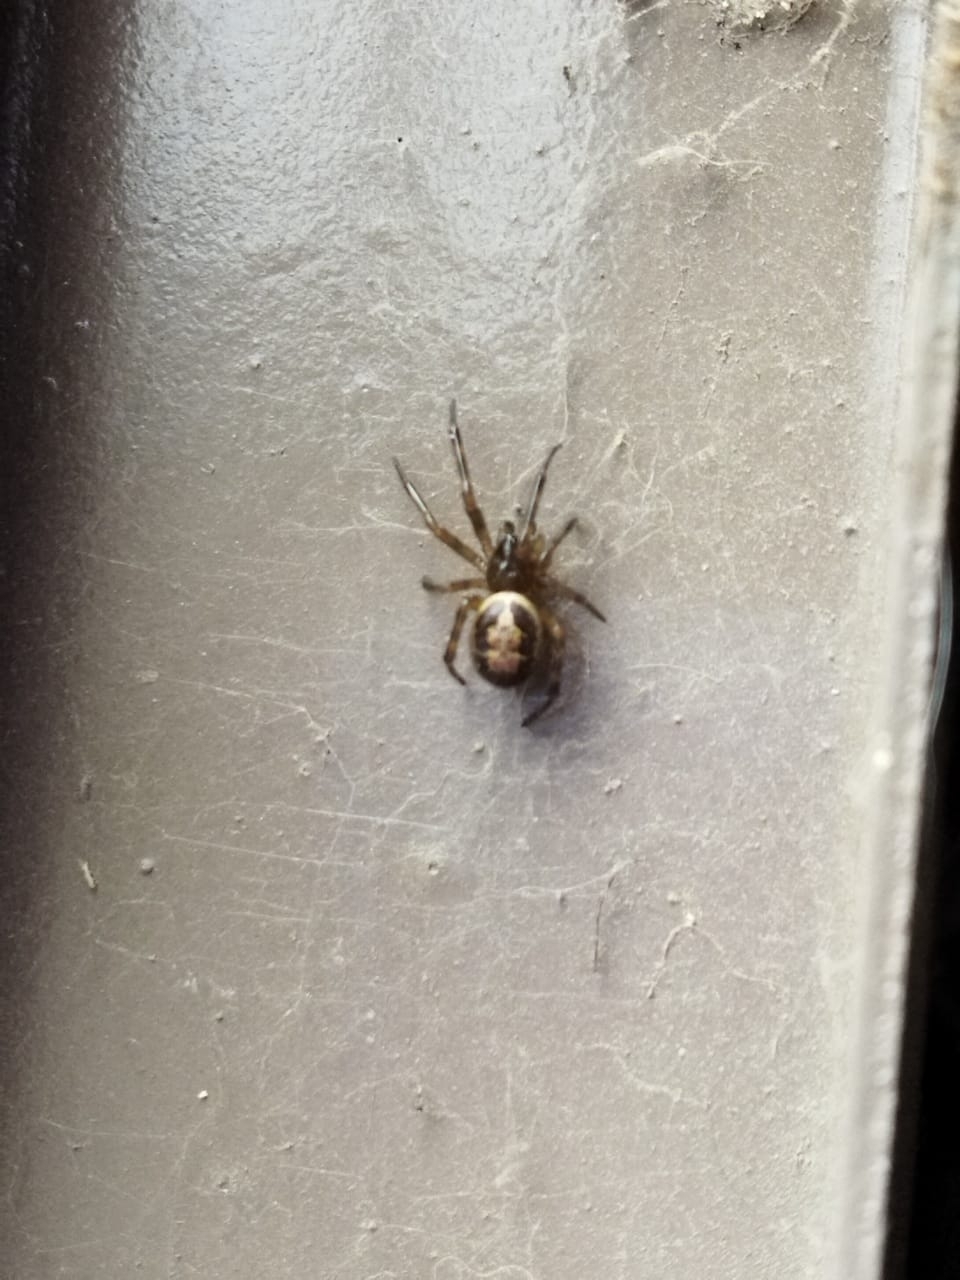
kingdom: Animalia
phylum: Arthropoda
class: Arachnida
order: Araneae
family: Theridiidae
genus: Steatoda
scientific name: Steatoda nobilis
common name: Cobweb weaver
